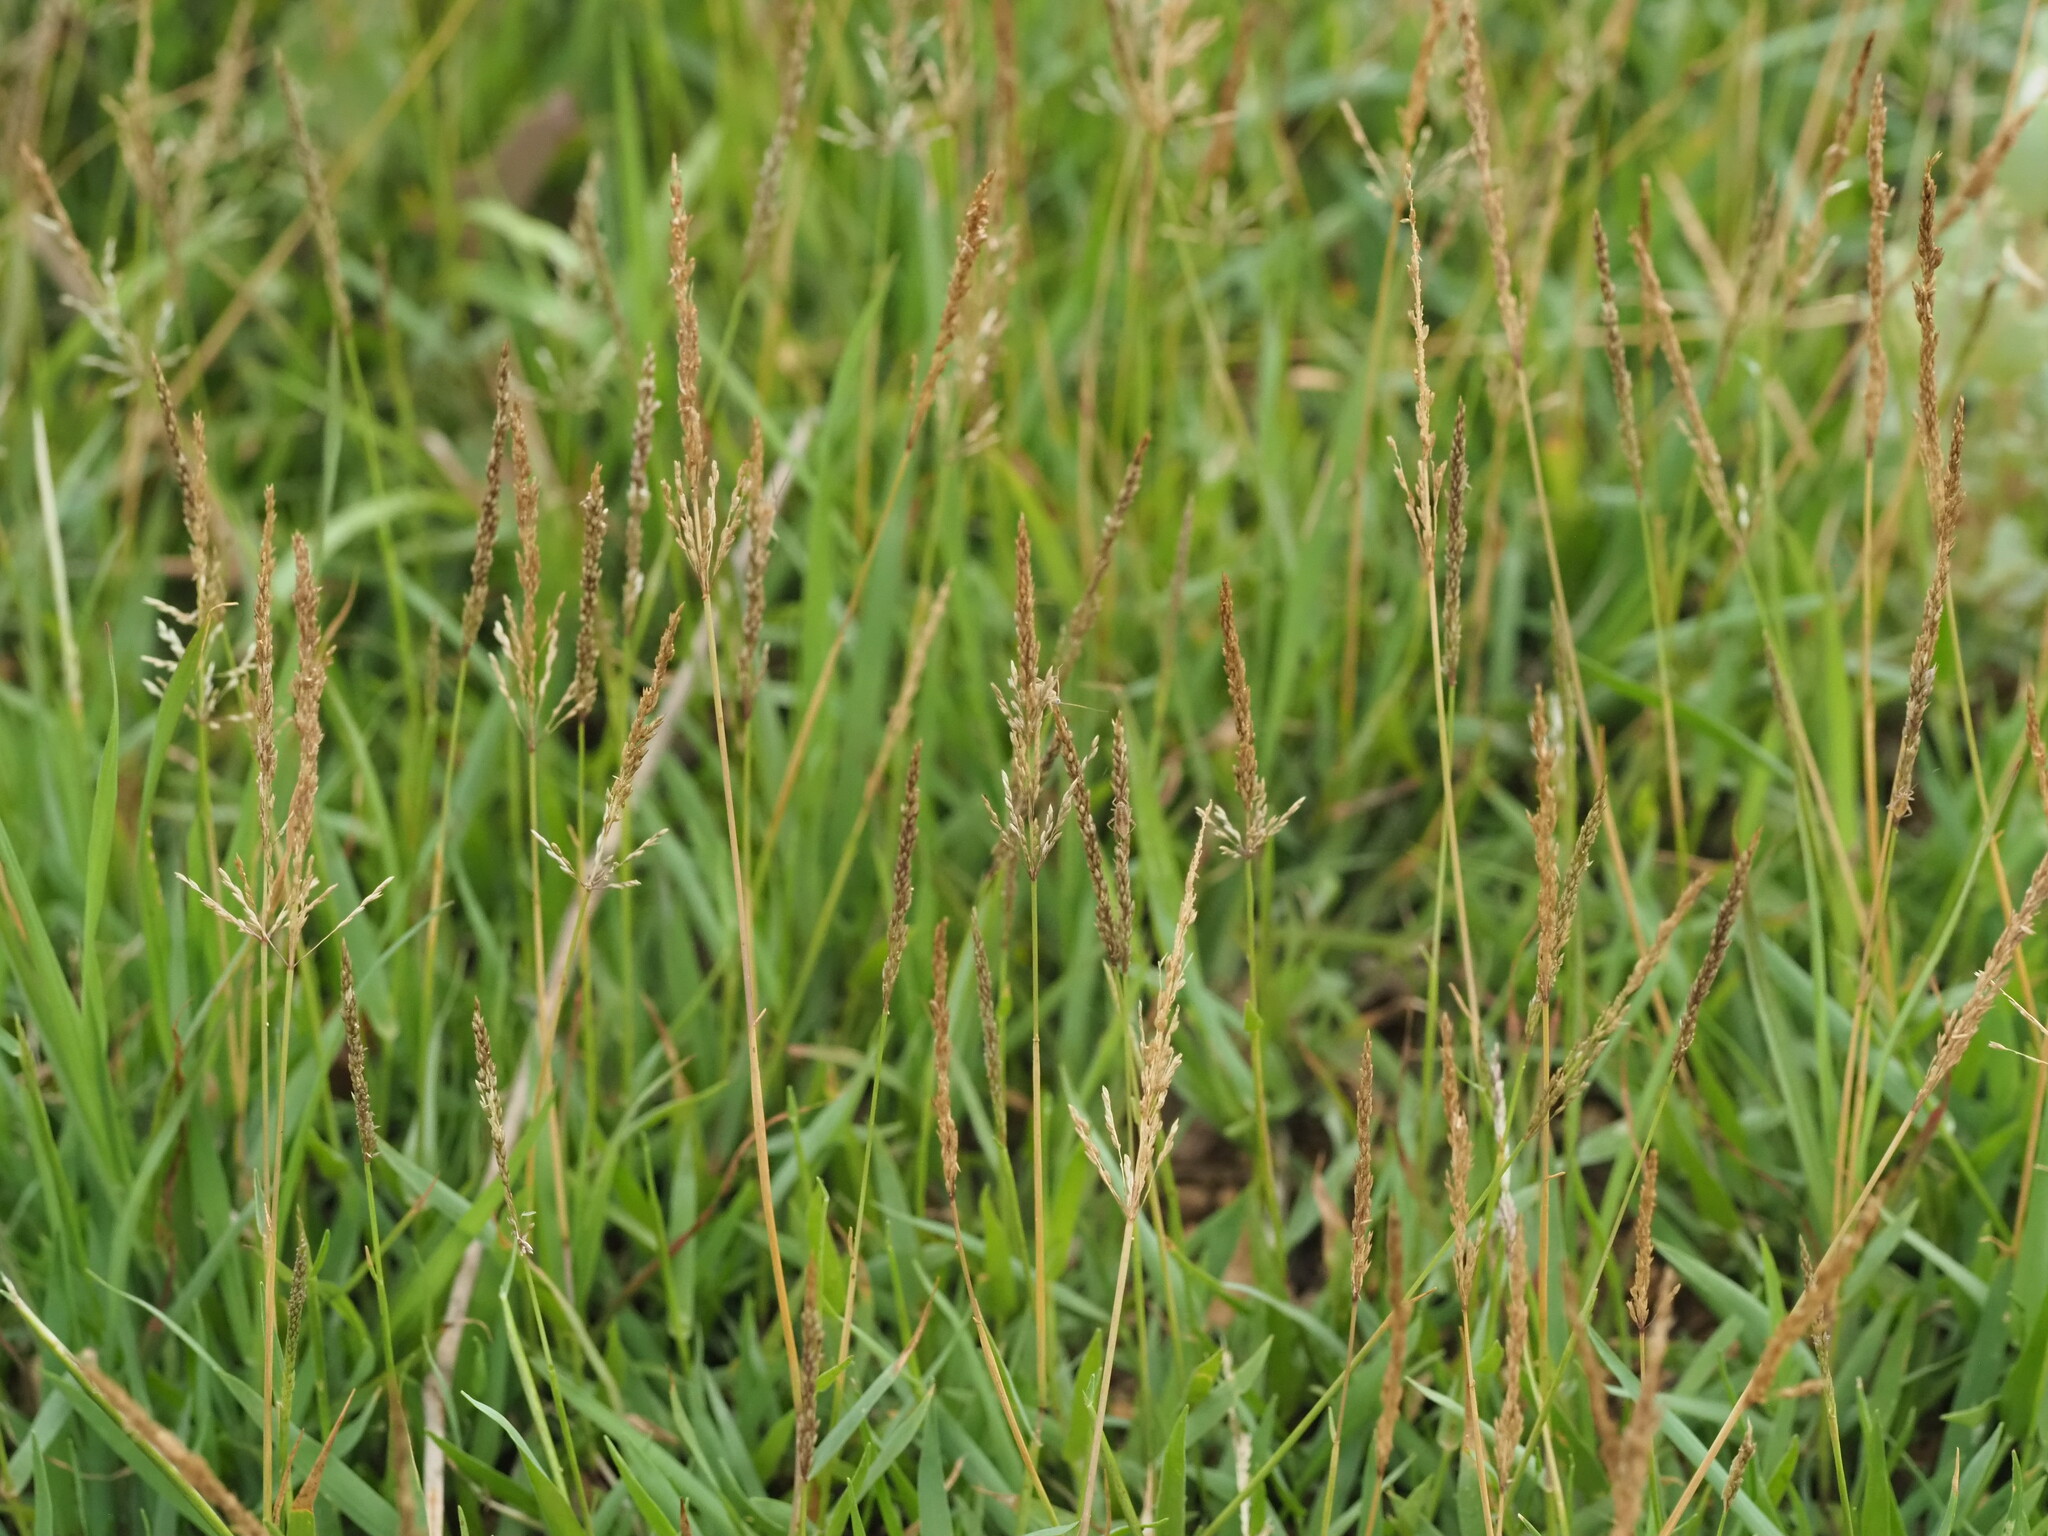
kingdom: Plantae
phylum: Tracheophyta
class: Liliopsida
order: Poales
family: Poaceae
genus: Sporobolus
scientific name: Sporobolus pyramidatus
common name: Whorled dropseed
